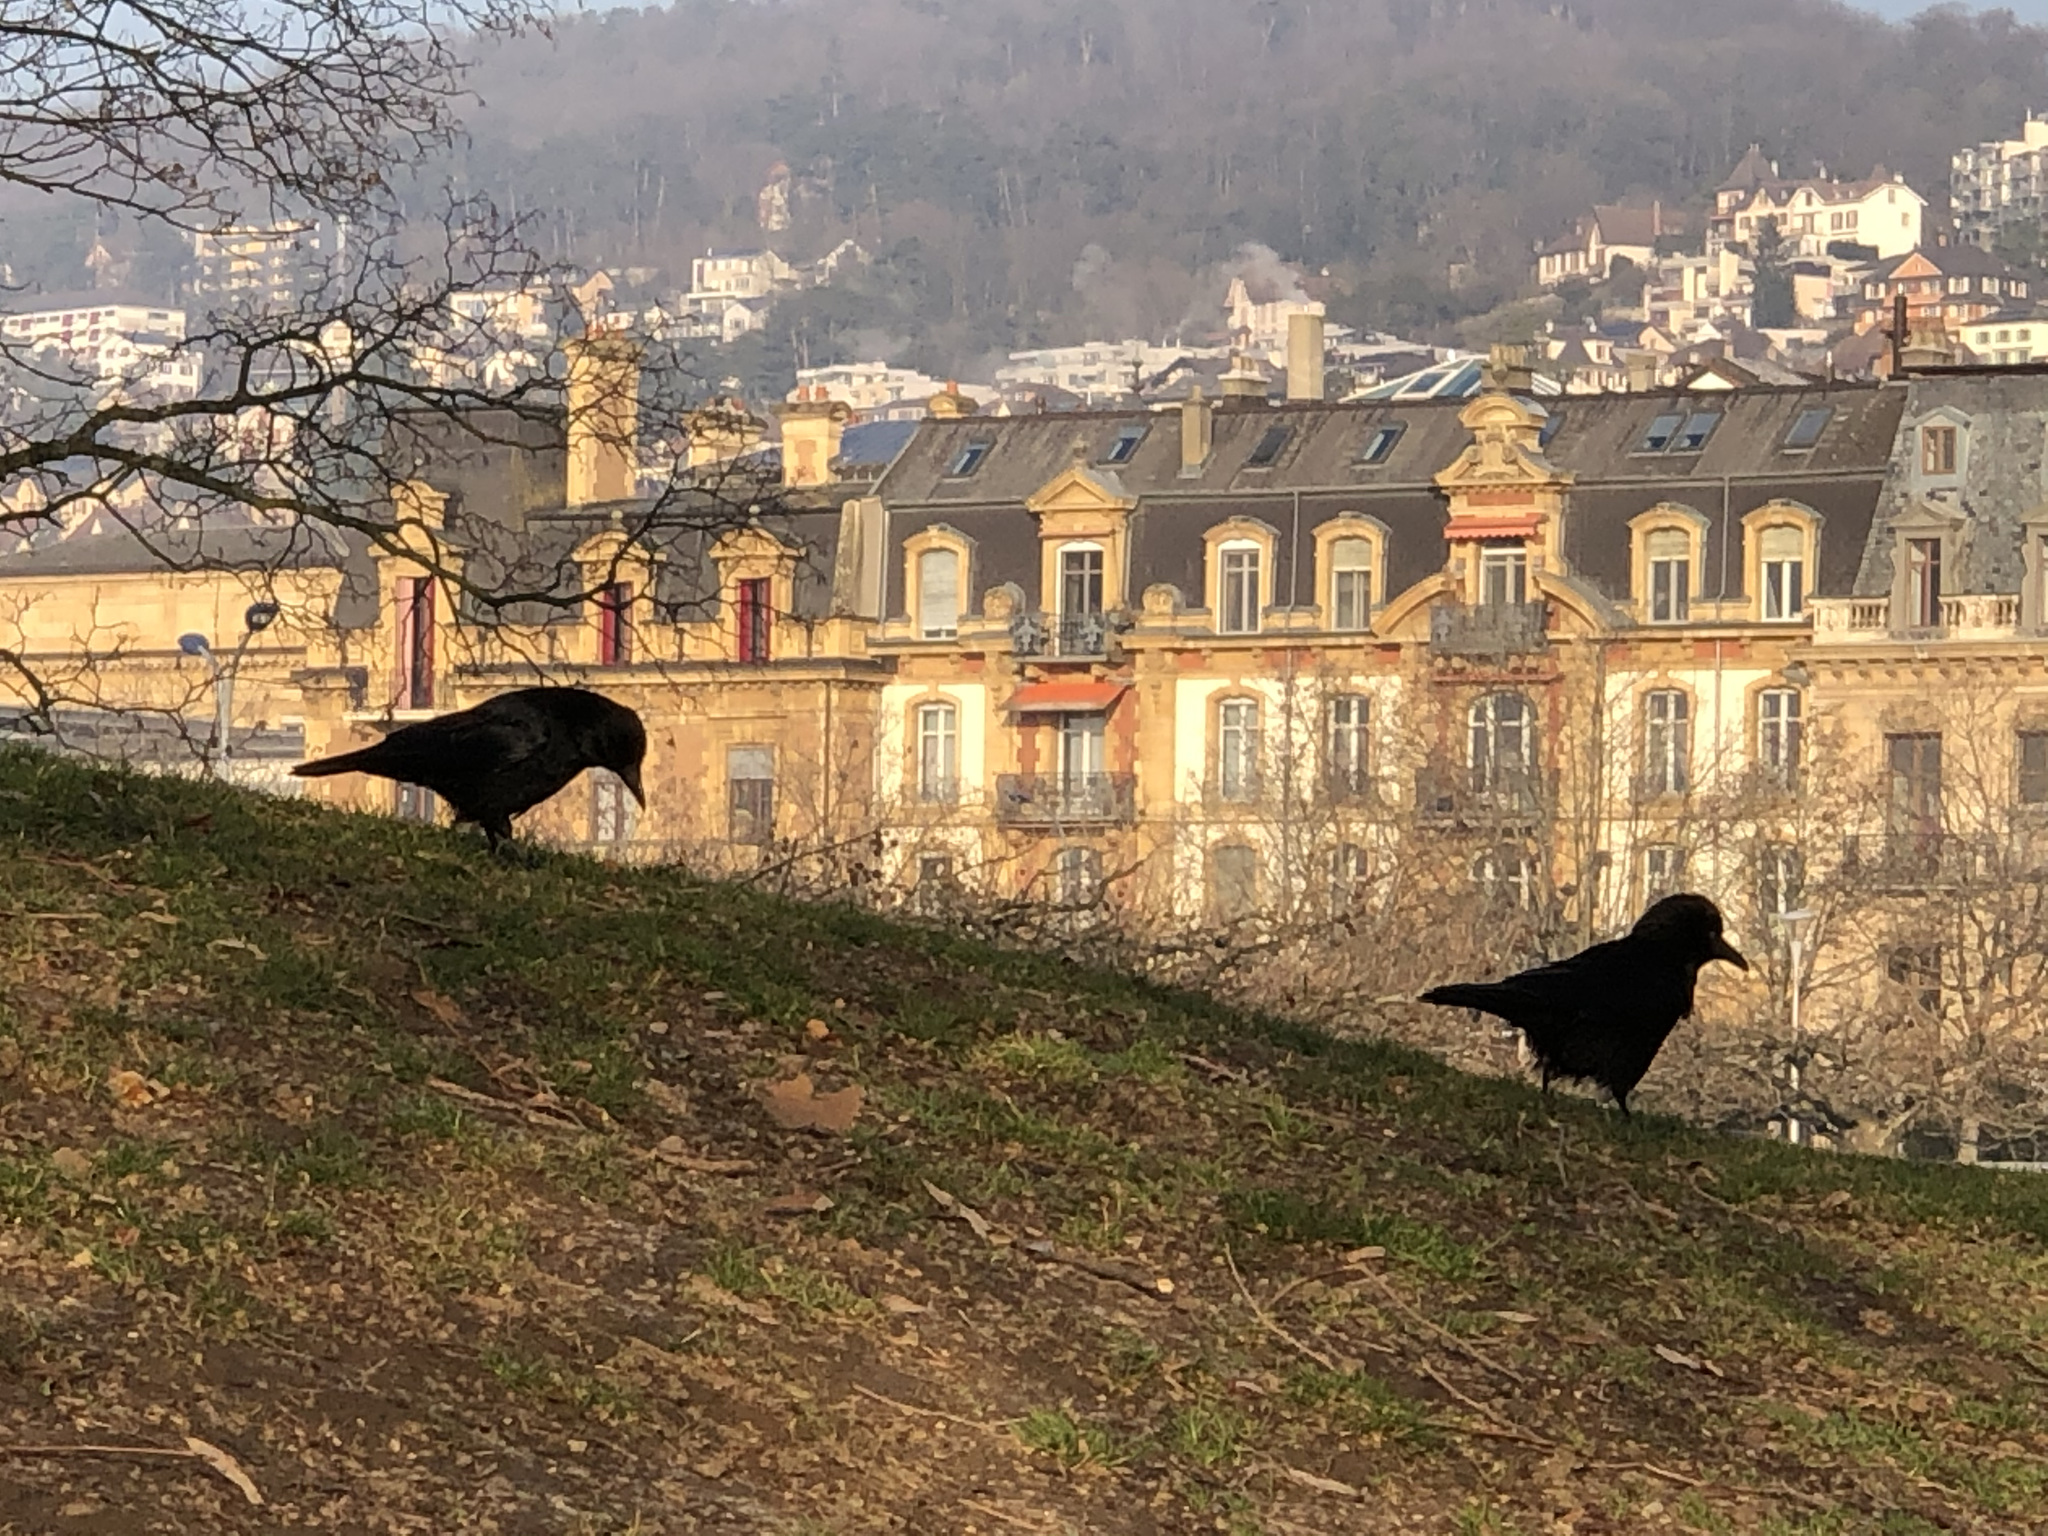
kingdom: Animalia
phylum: Chordata
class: Aves
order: Passeriformes
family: Corvidae
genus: Corvus
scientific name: Corvus frugilegus
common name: Rook
